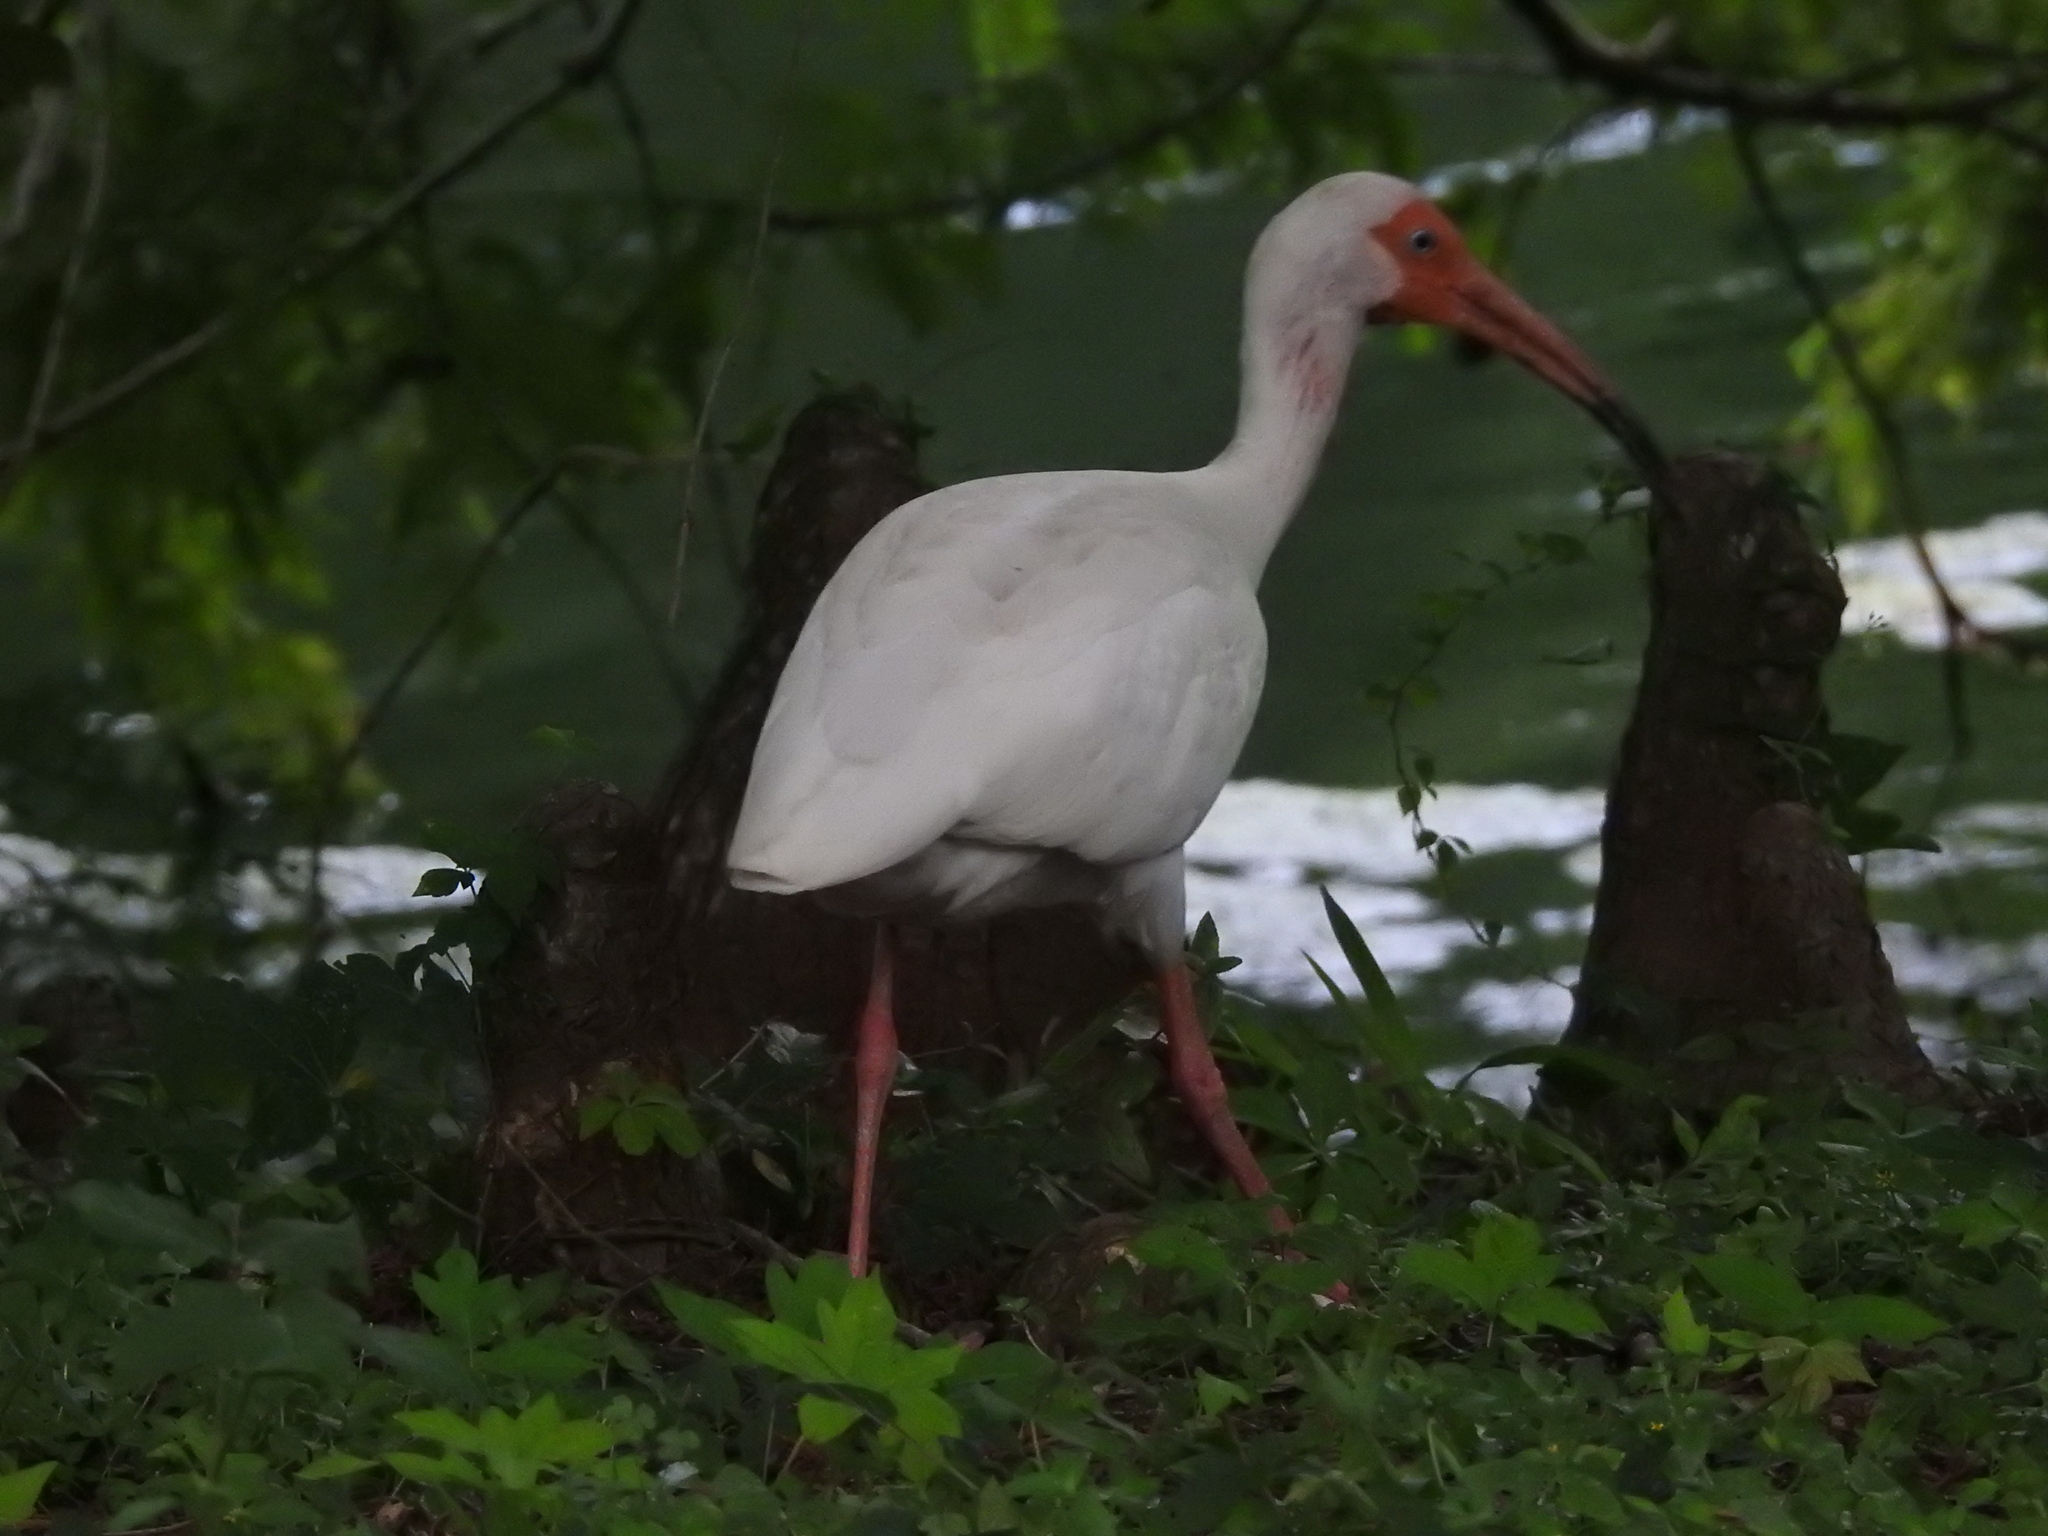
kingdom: Animalia
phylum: Chordata
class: Aves
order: Pelecaniformes
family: Threskiornithidae
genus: Eudocimus
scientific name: Eudocimus albus
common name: White ibis
